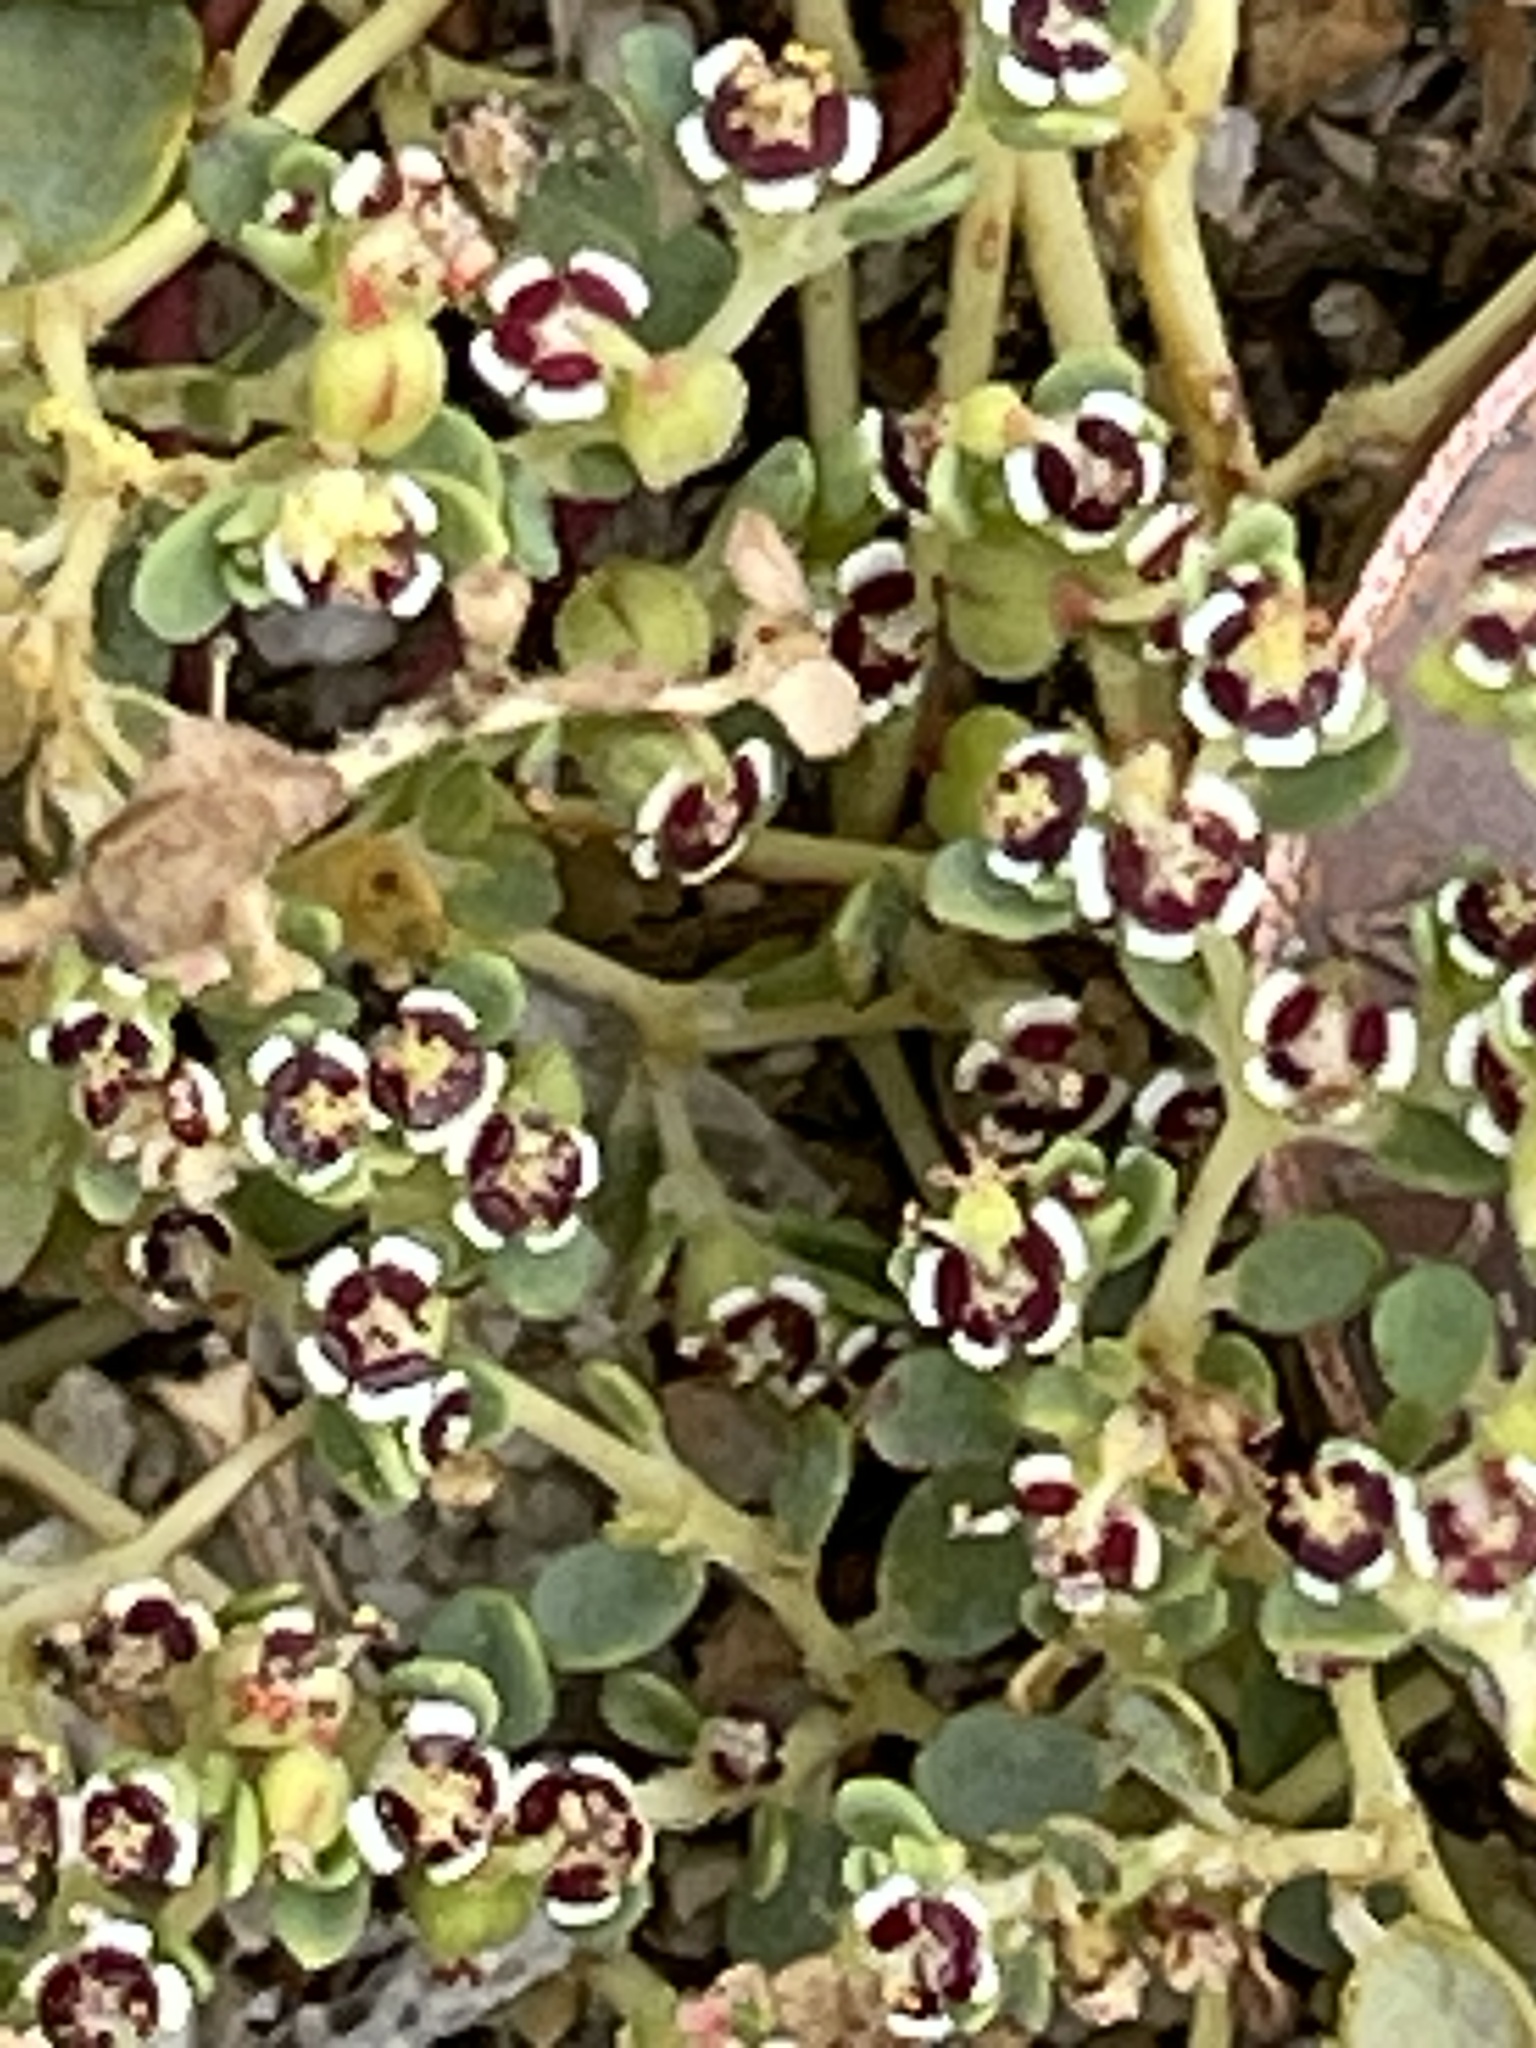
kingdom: Plantae
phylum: Tracheophyta
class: Magnoliopsida
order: Malpighiales
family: Euphorbiaceae
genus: Euphorbia
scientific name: Euphorbia polycarpa
